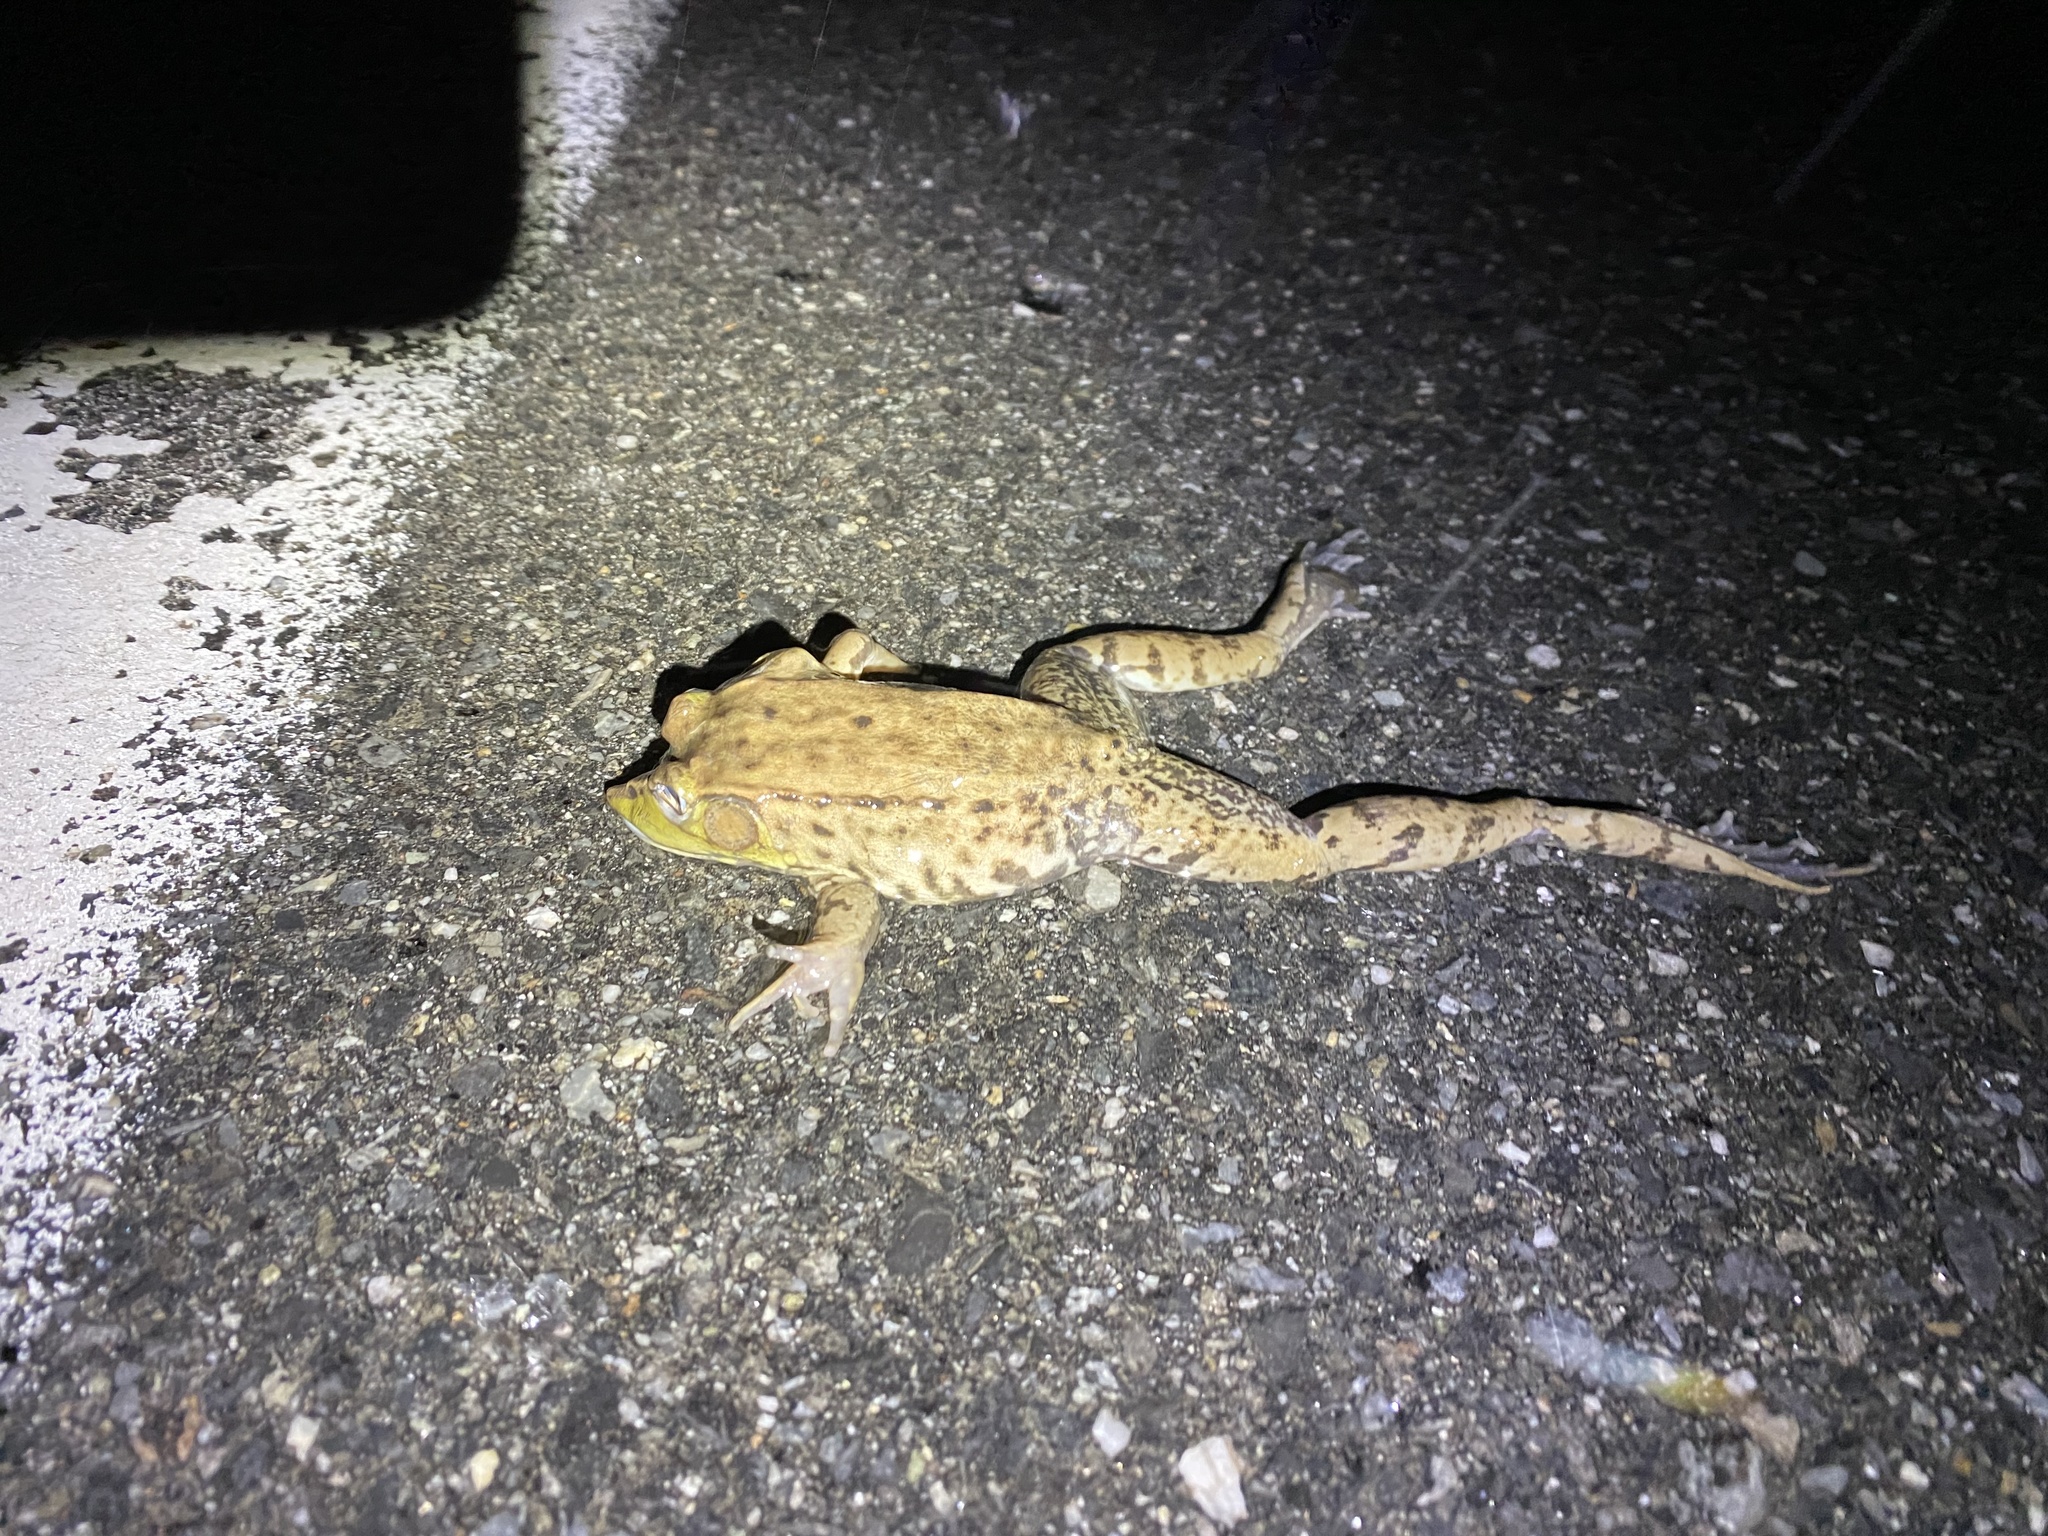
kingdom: Animalia
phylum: Chordata
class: Amphibia
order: Anura
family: Ranidae
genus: Lithobates
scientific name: Lithobates clamitans
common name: Green frog
